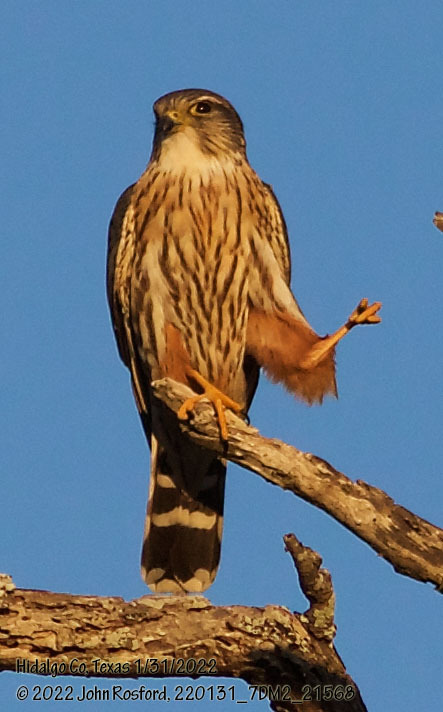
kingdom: Animalia
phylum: Chordata
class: Aves
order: Falconiformes
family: Falconidae
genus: Falco
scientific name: Falco columbarius
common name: Merlin
